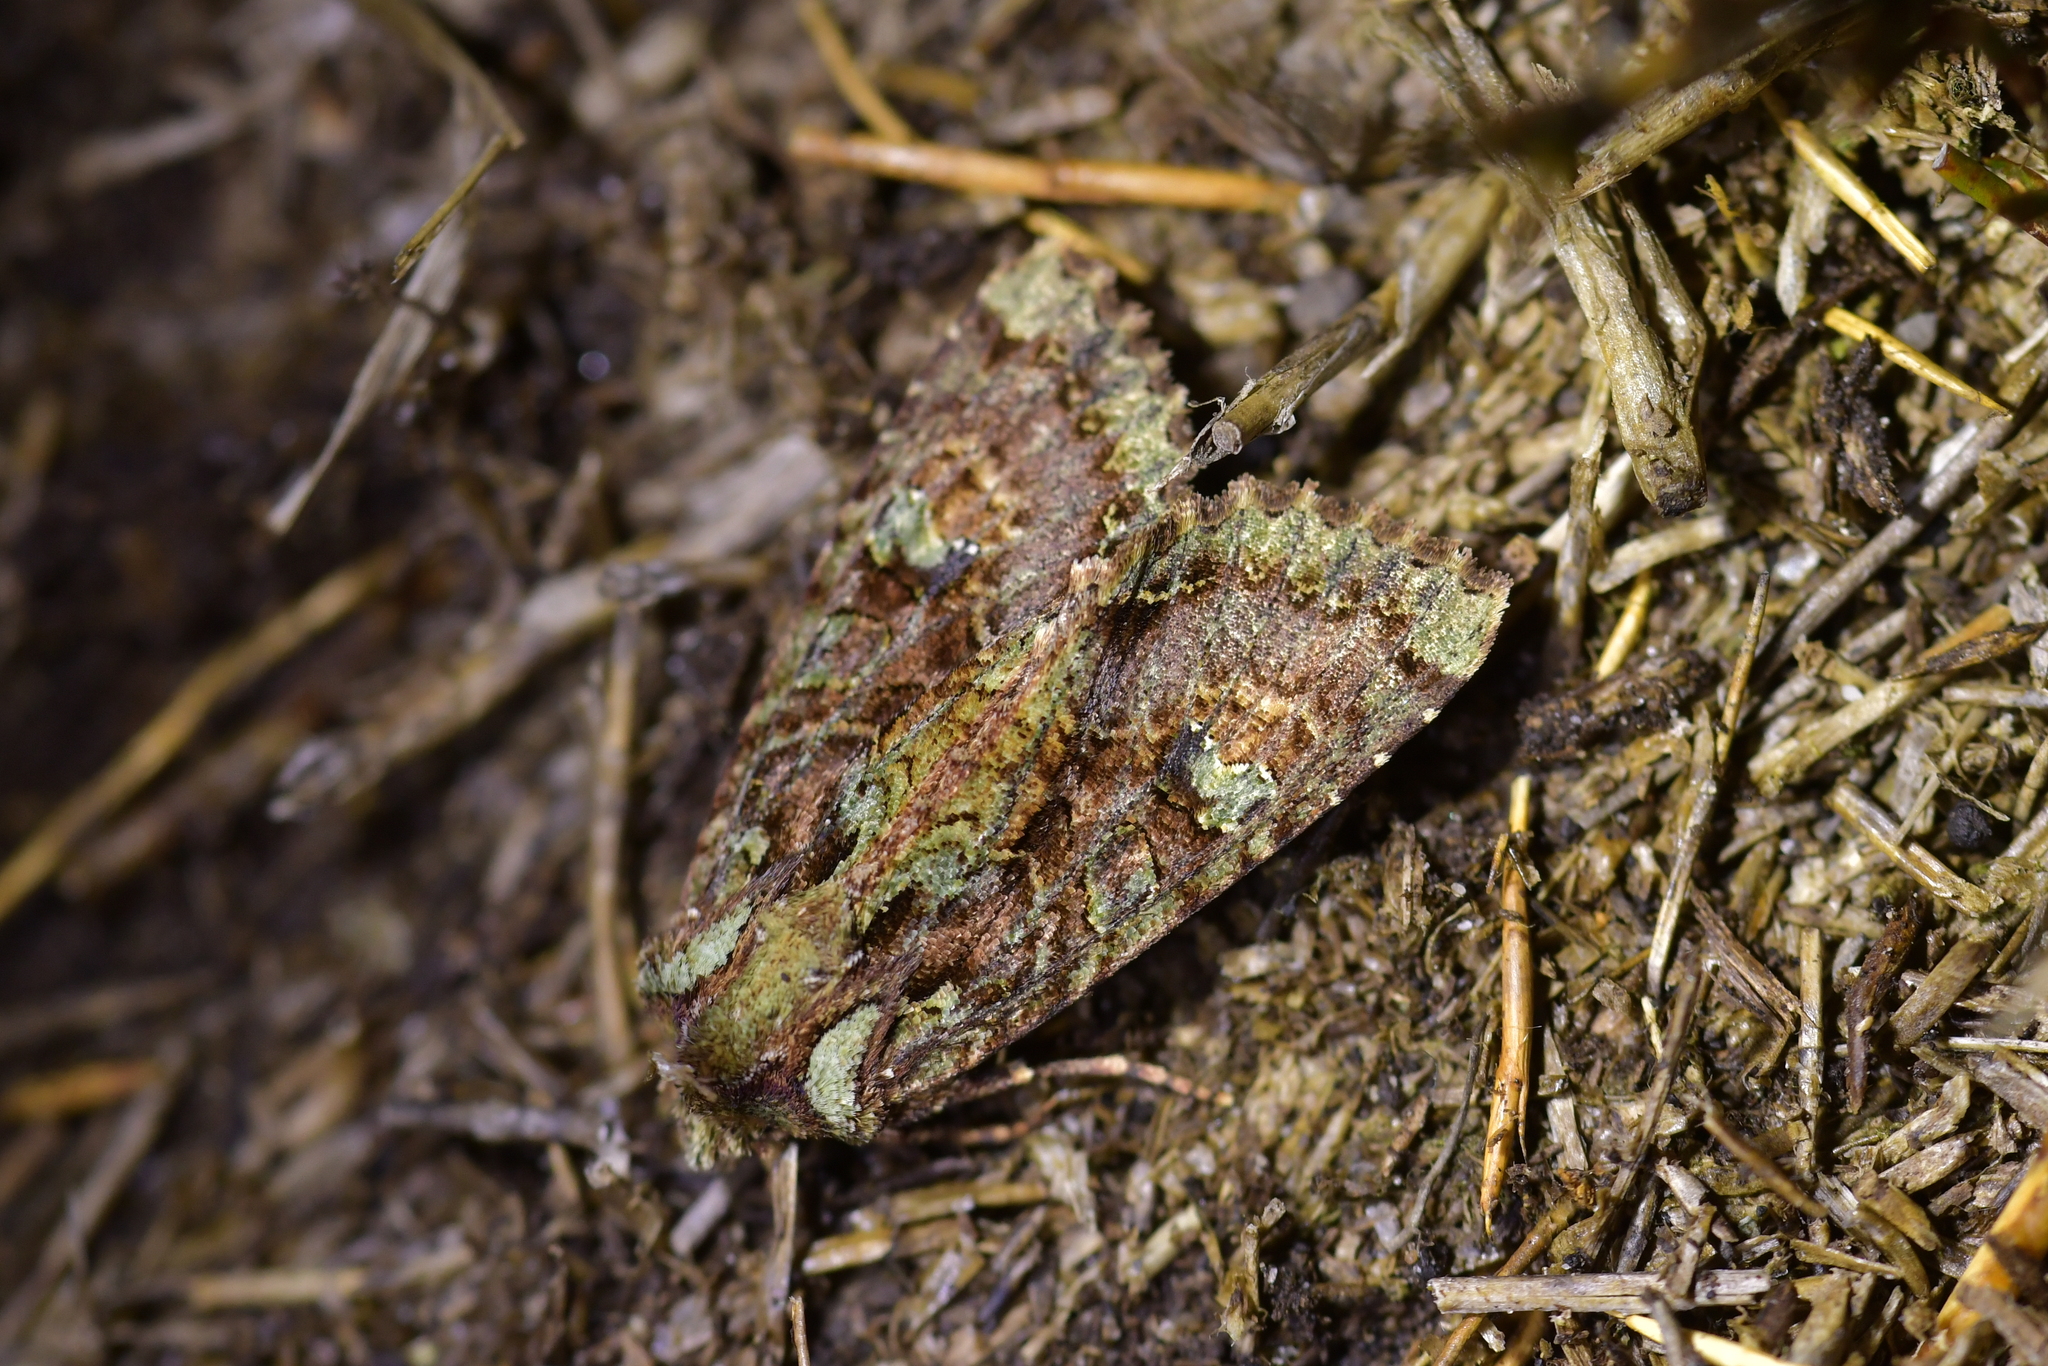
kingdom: Animalia
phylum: Arthropoda
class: Insecta
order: Lepidoptera
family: Noctuidae
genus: Meterana
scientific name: Meterana
